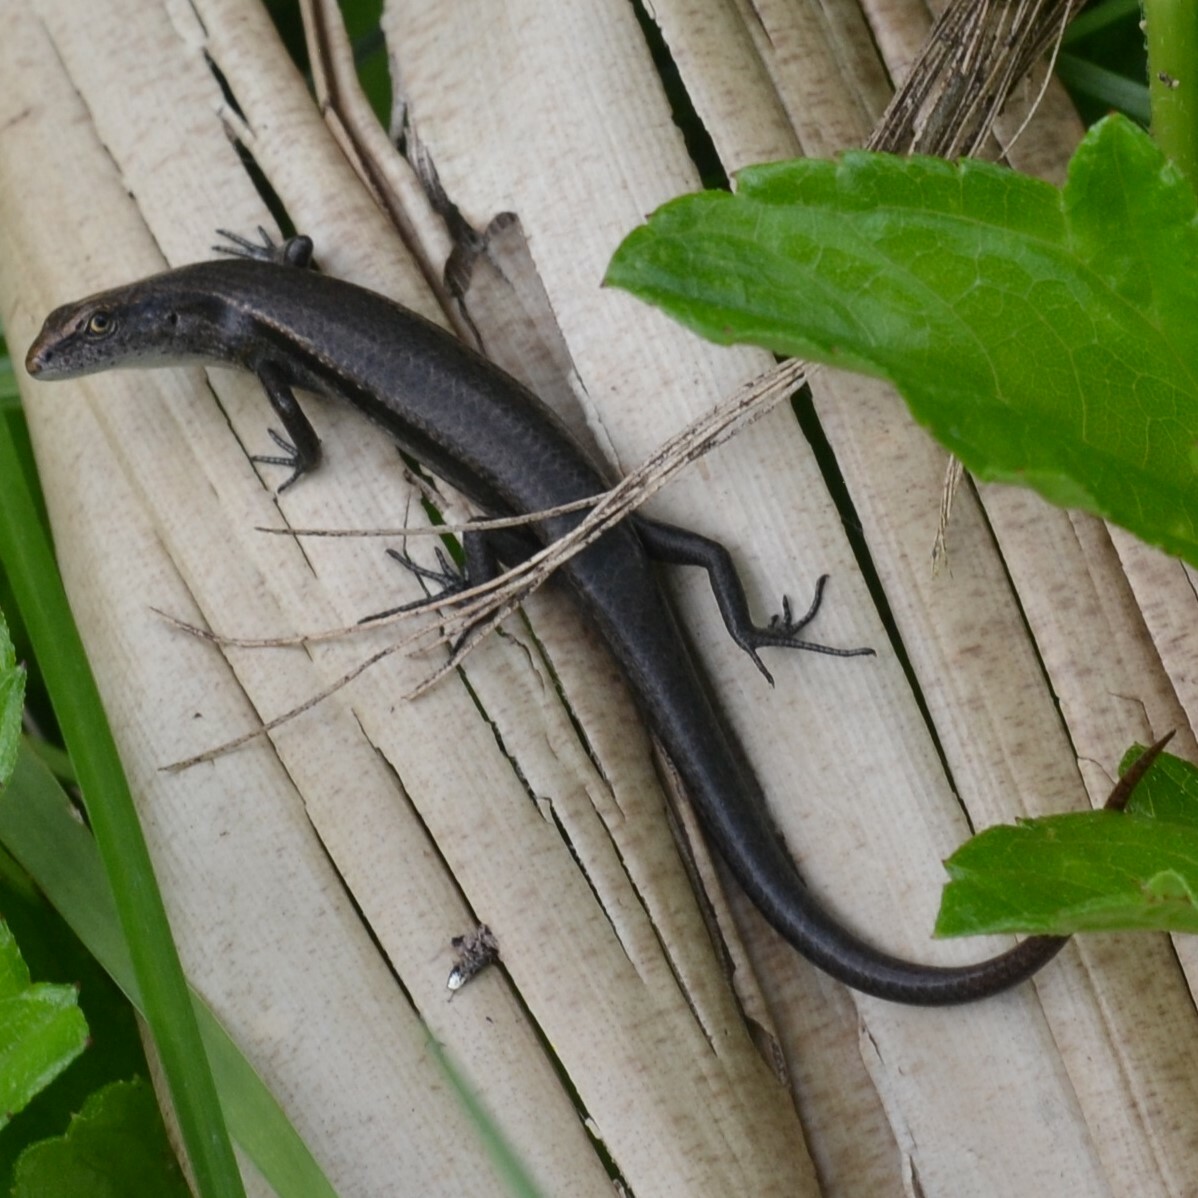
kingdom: Animalia
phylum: Chordata
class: Squamata
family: Scincidae
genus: Lampropholis
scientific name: Lampropholis delicata
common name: Plague skink
